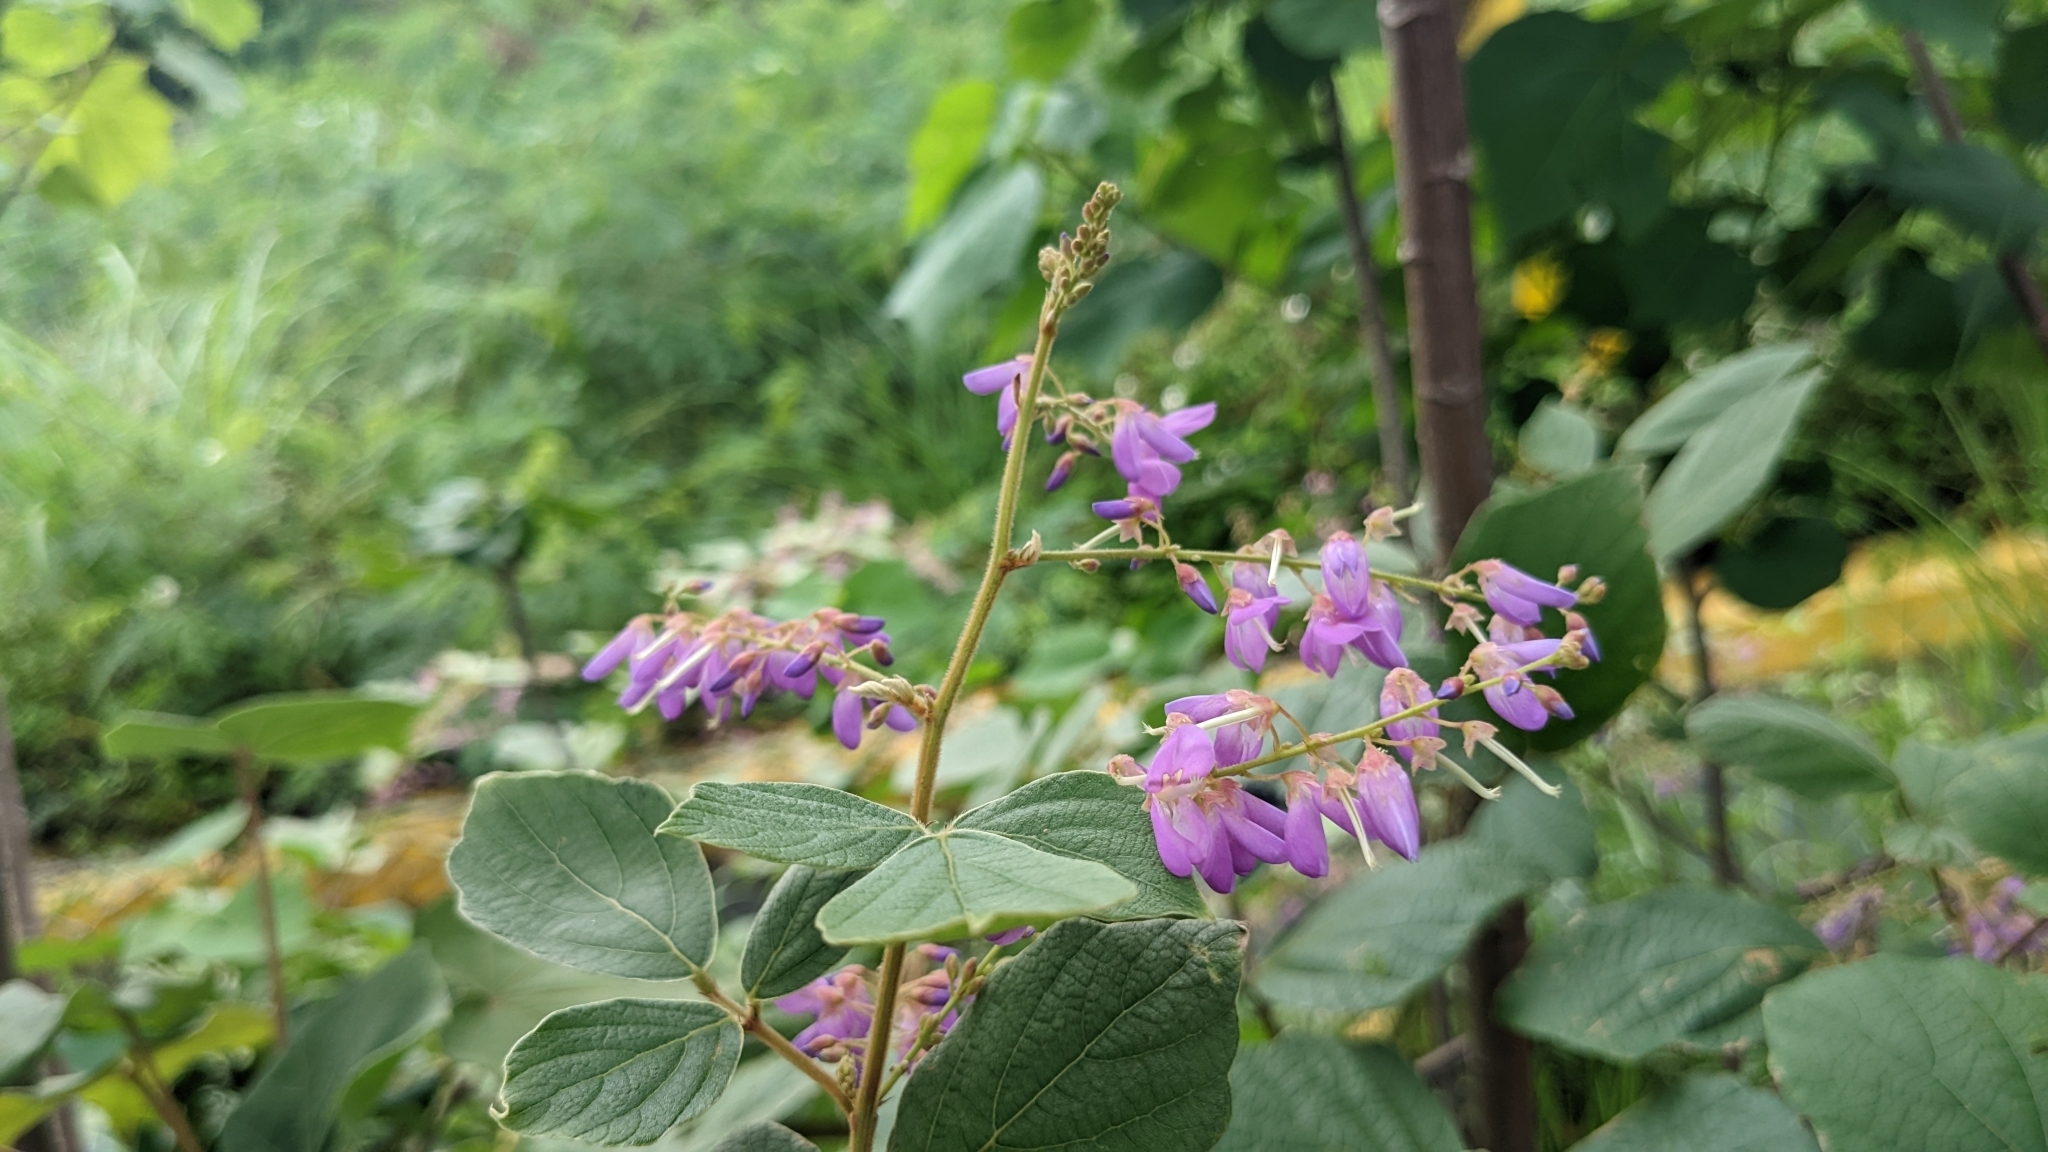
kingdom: Plantae
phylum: Tracheophyta
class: Magnoliopsida
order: Fabales
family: Fabaceae
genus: Puhuaea
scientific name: Puhuaea sequax
